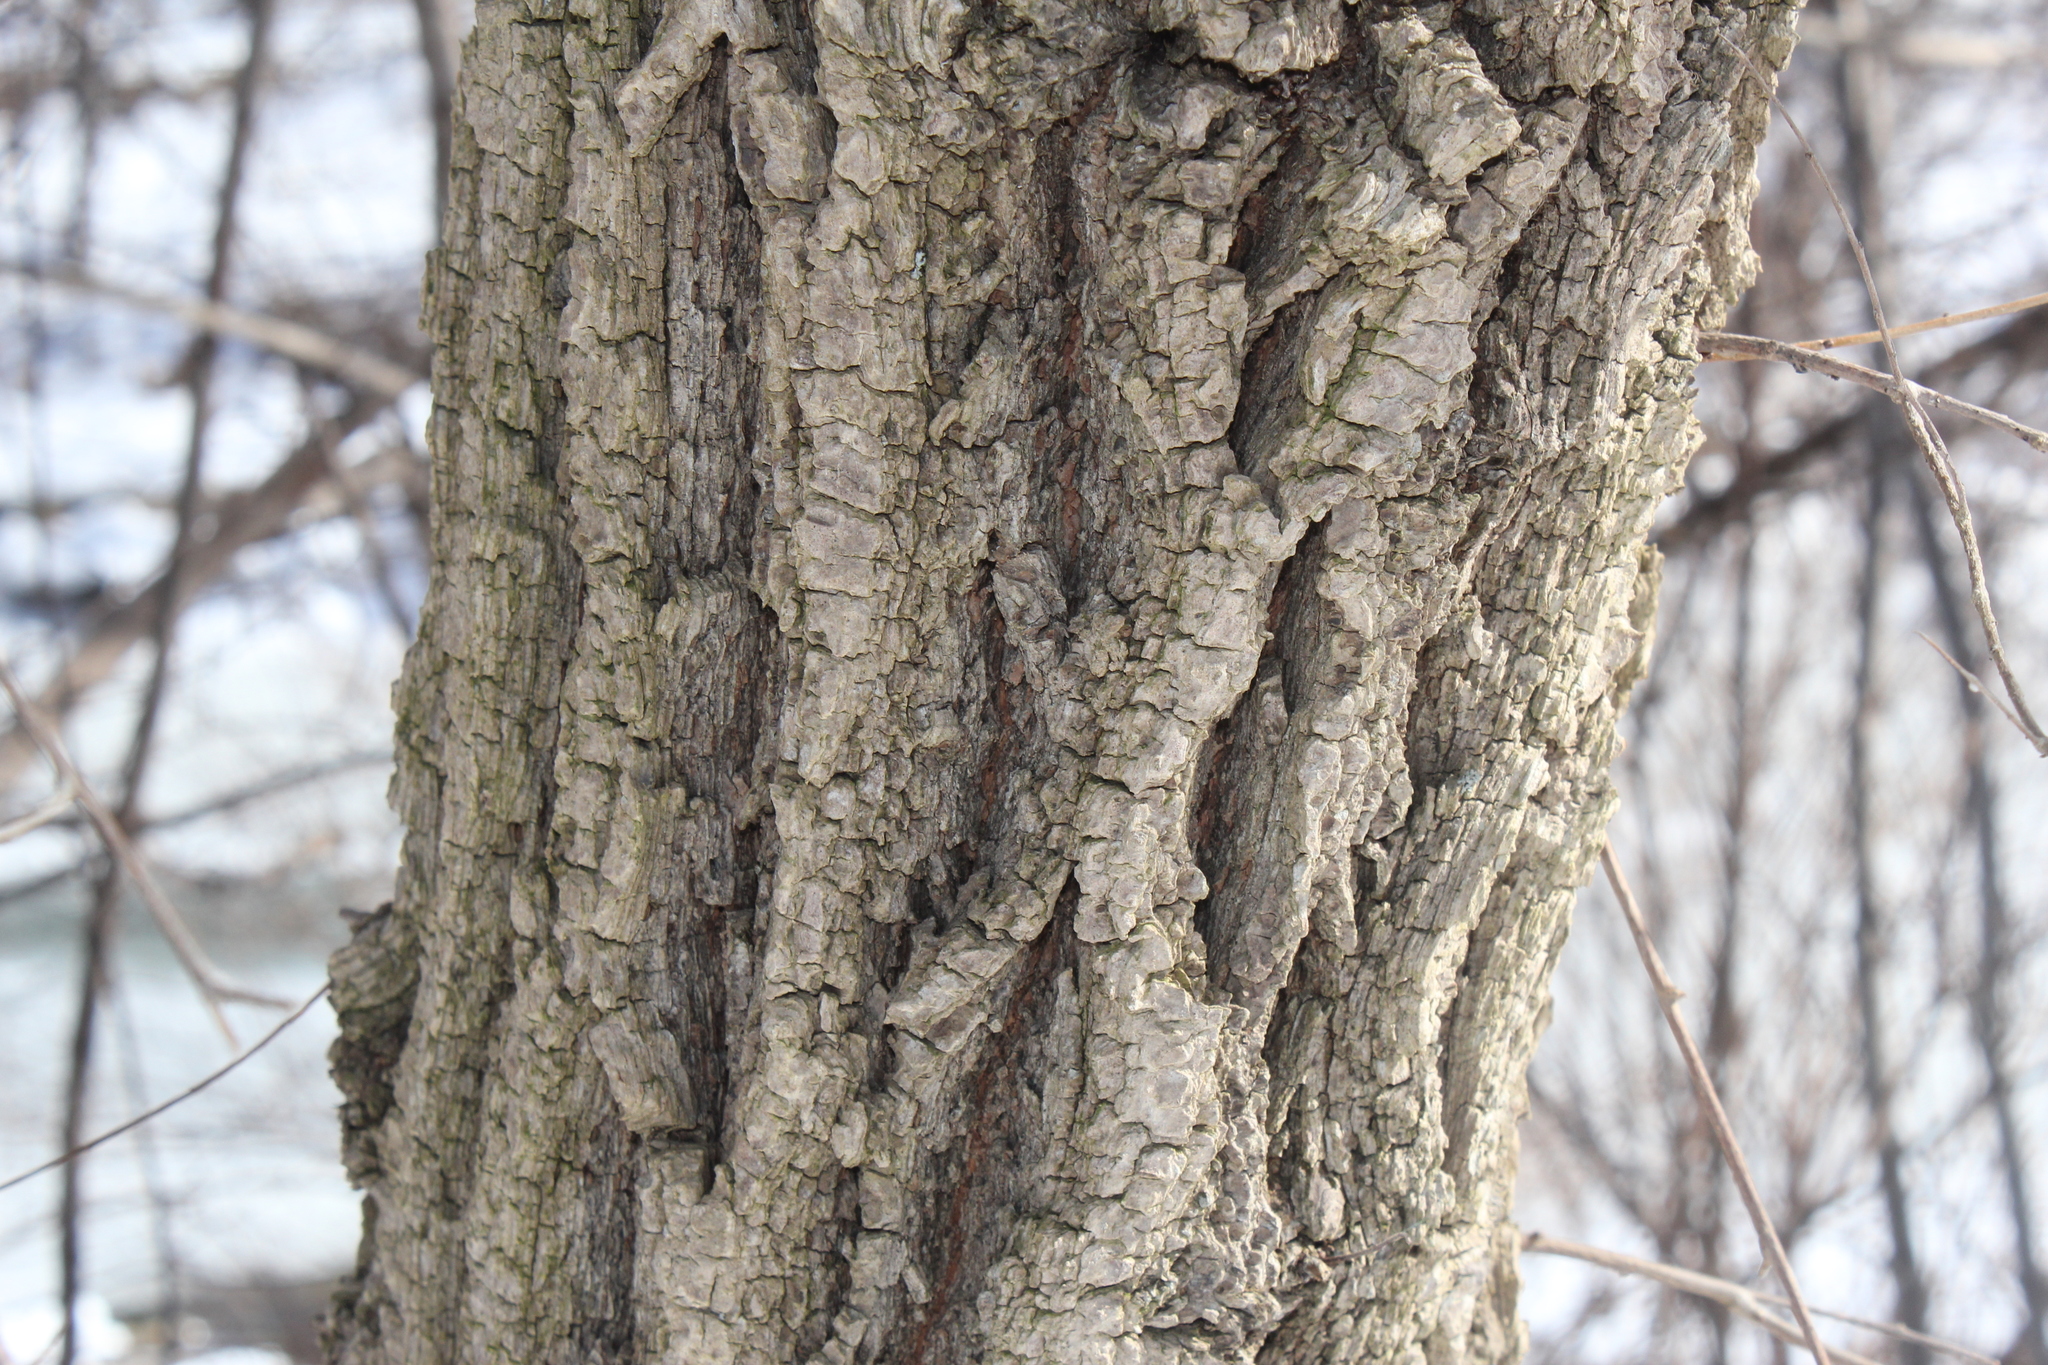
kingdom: Plantae
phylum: Tracheophyta
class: Magnoliopsida
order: Rosales
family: Ulmaceae
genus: Ulmus
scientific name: Ulmus pumila
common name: Siberian elm
